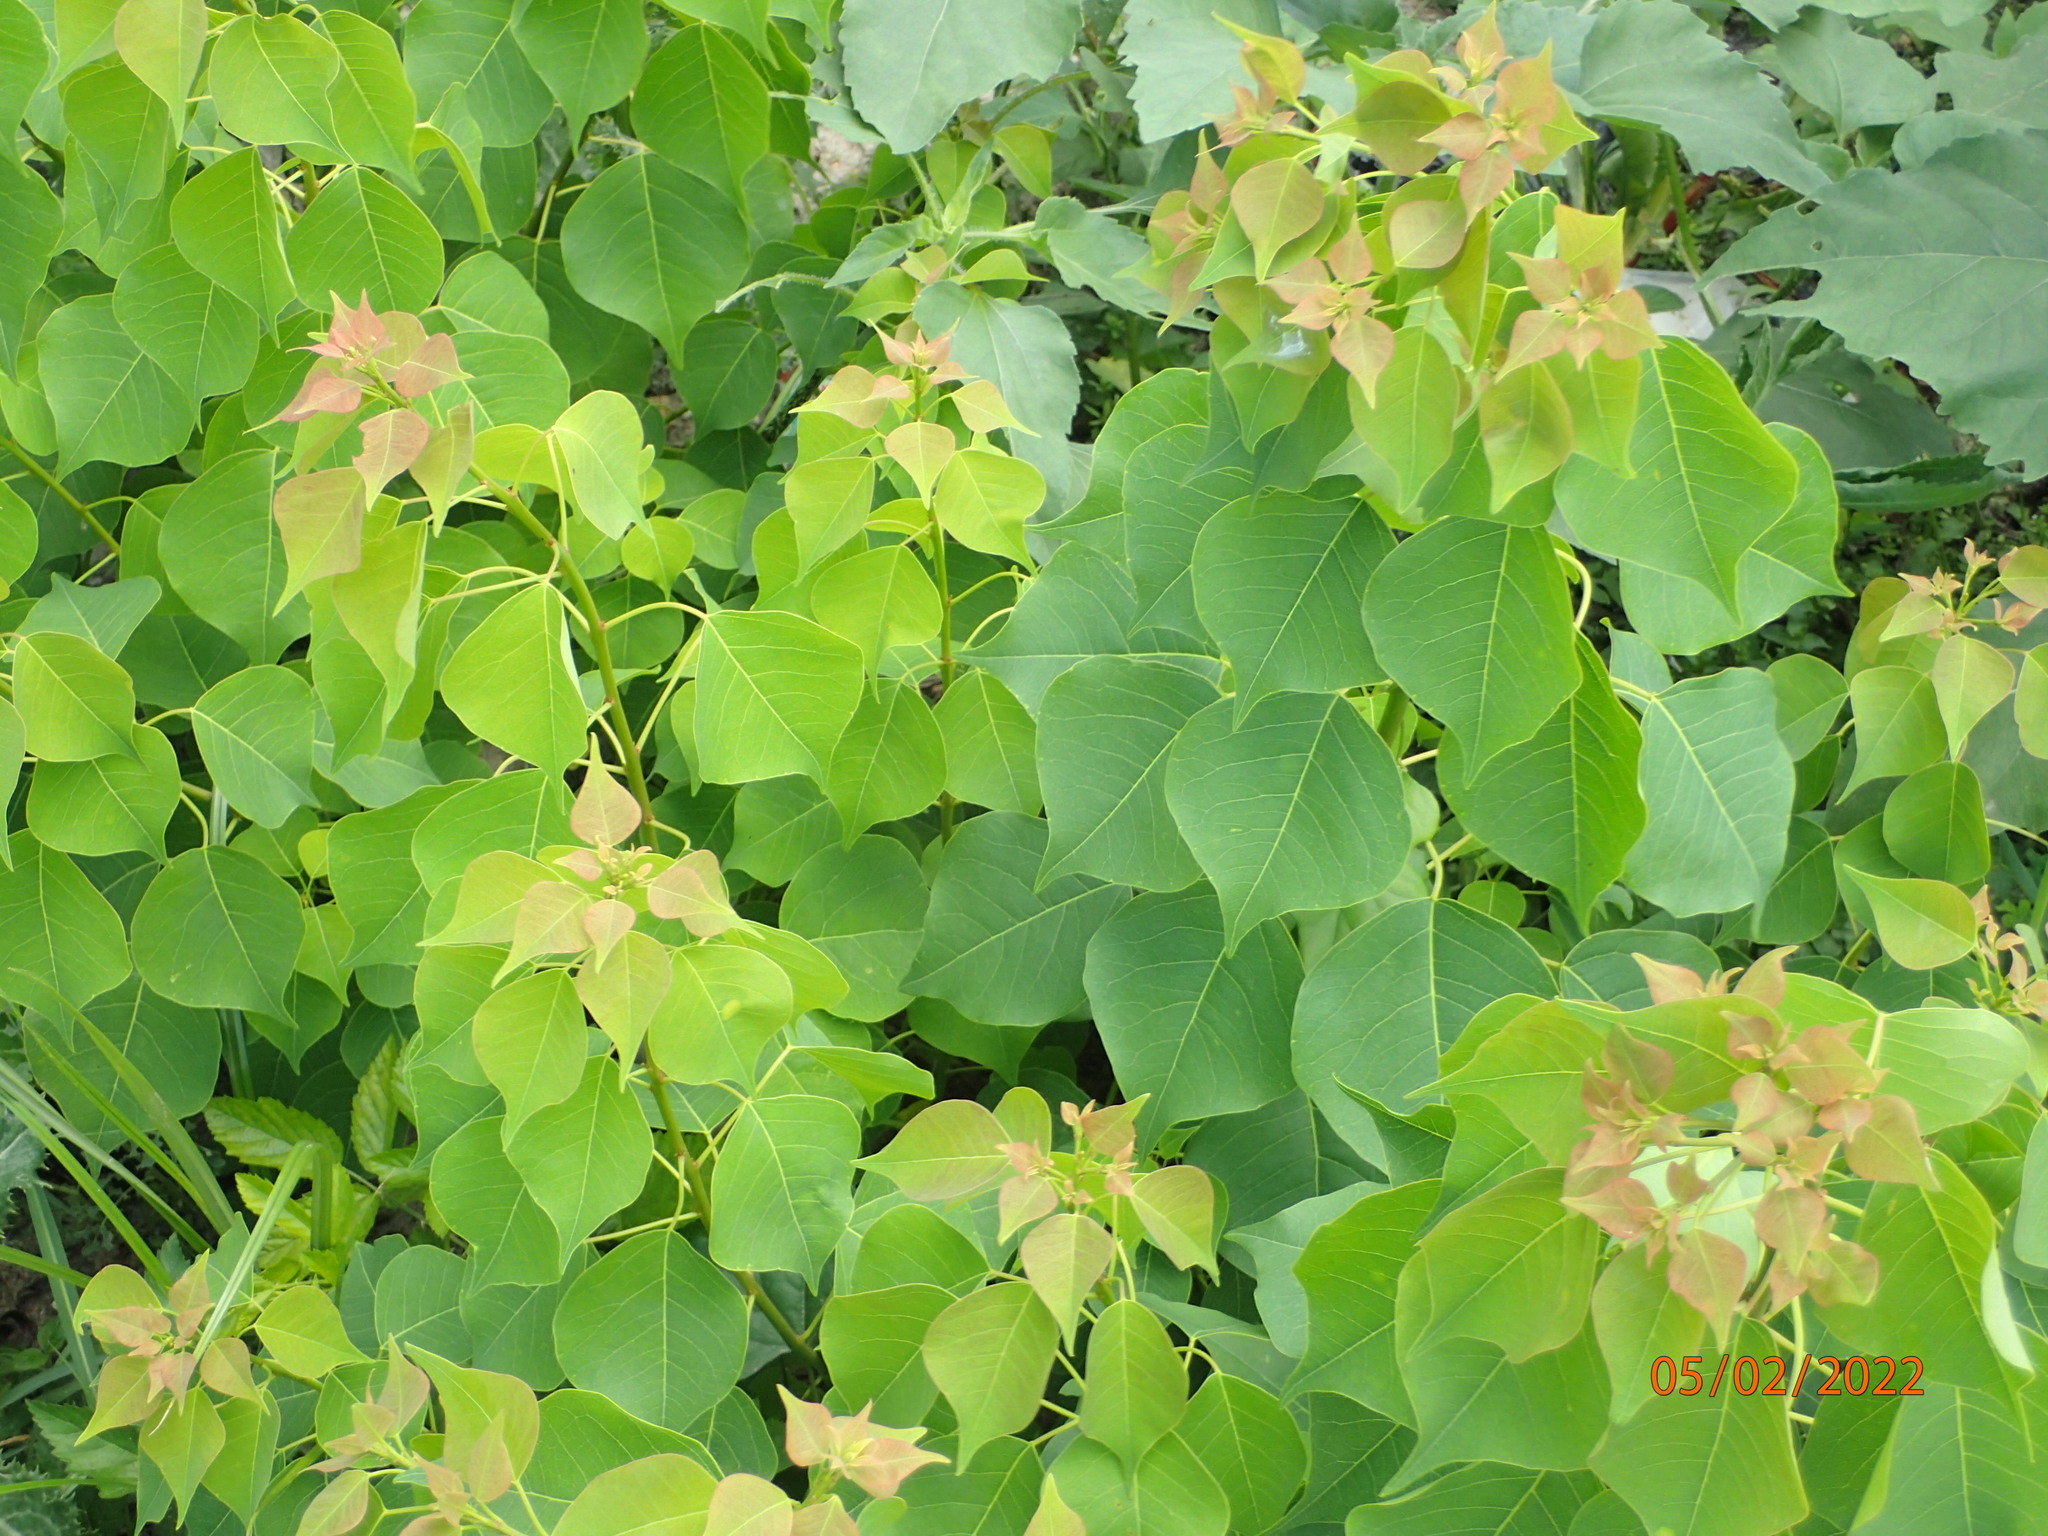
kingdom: Plantae
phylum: Tracheophyta
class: Magnoliopsida
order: Malpighiales
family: Euphorbiaceae
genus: Triadica
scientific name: Triadica sebifera
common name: Chinese tallow
